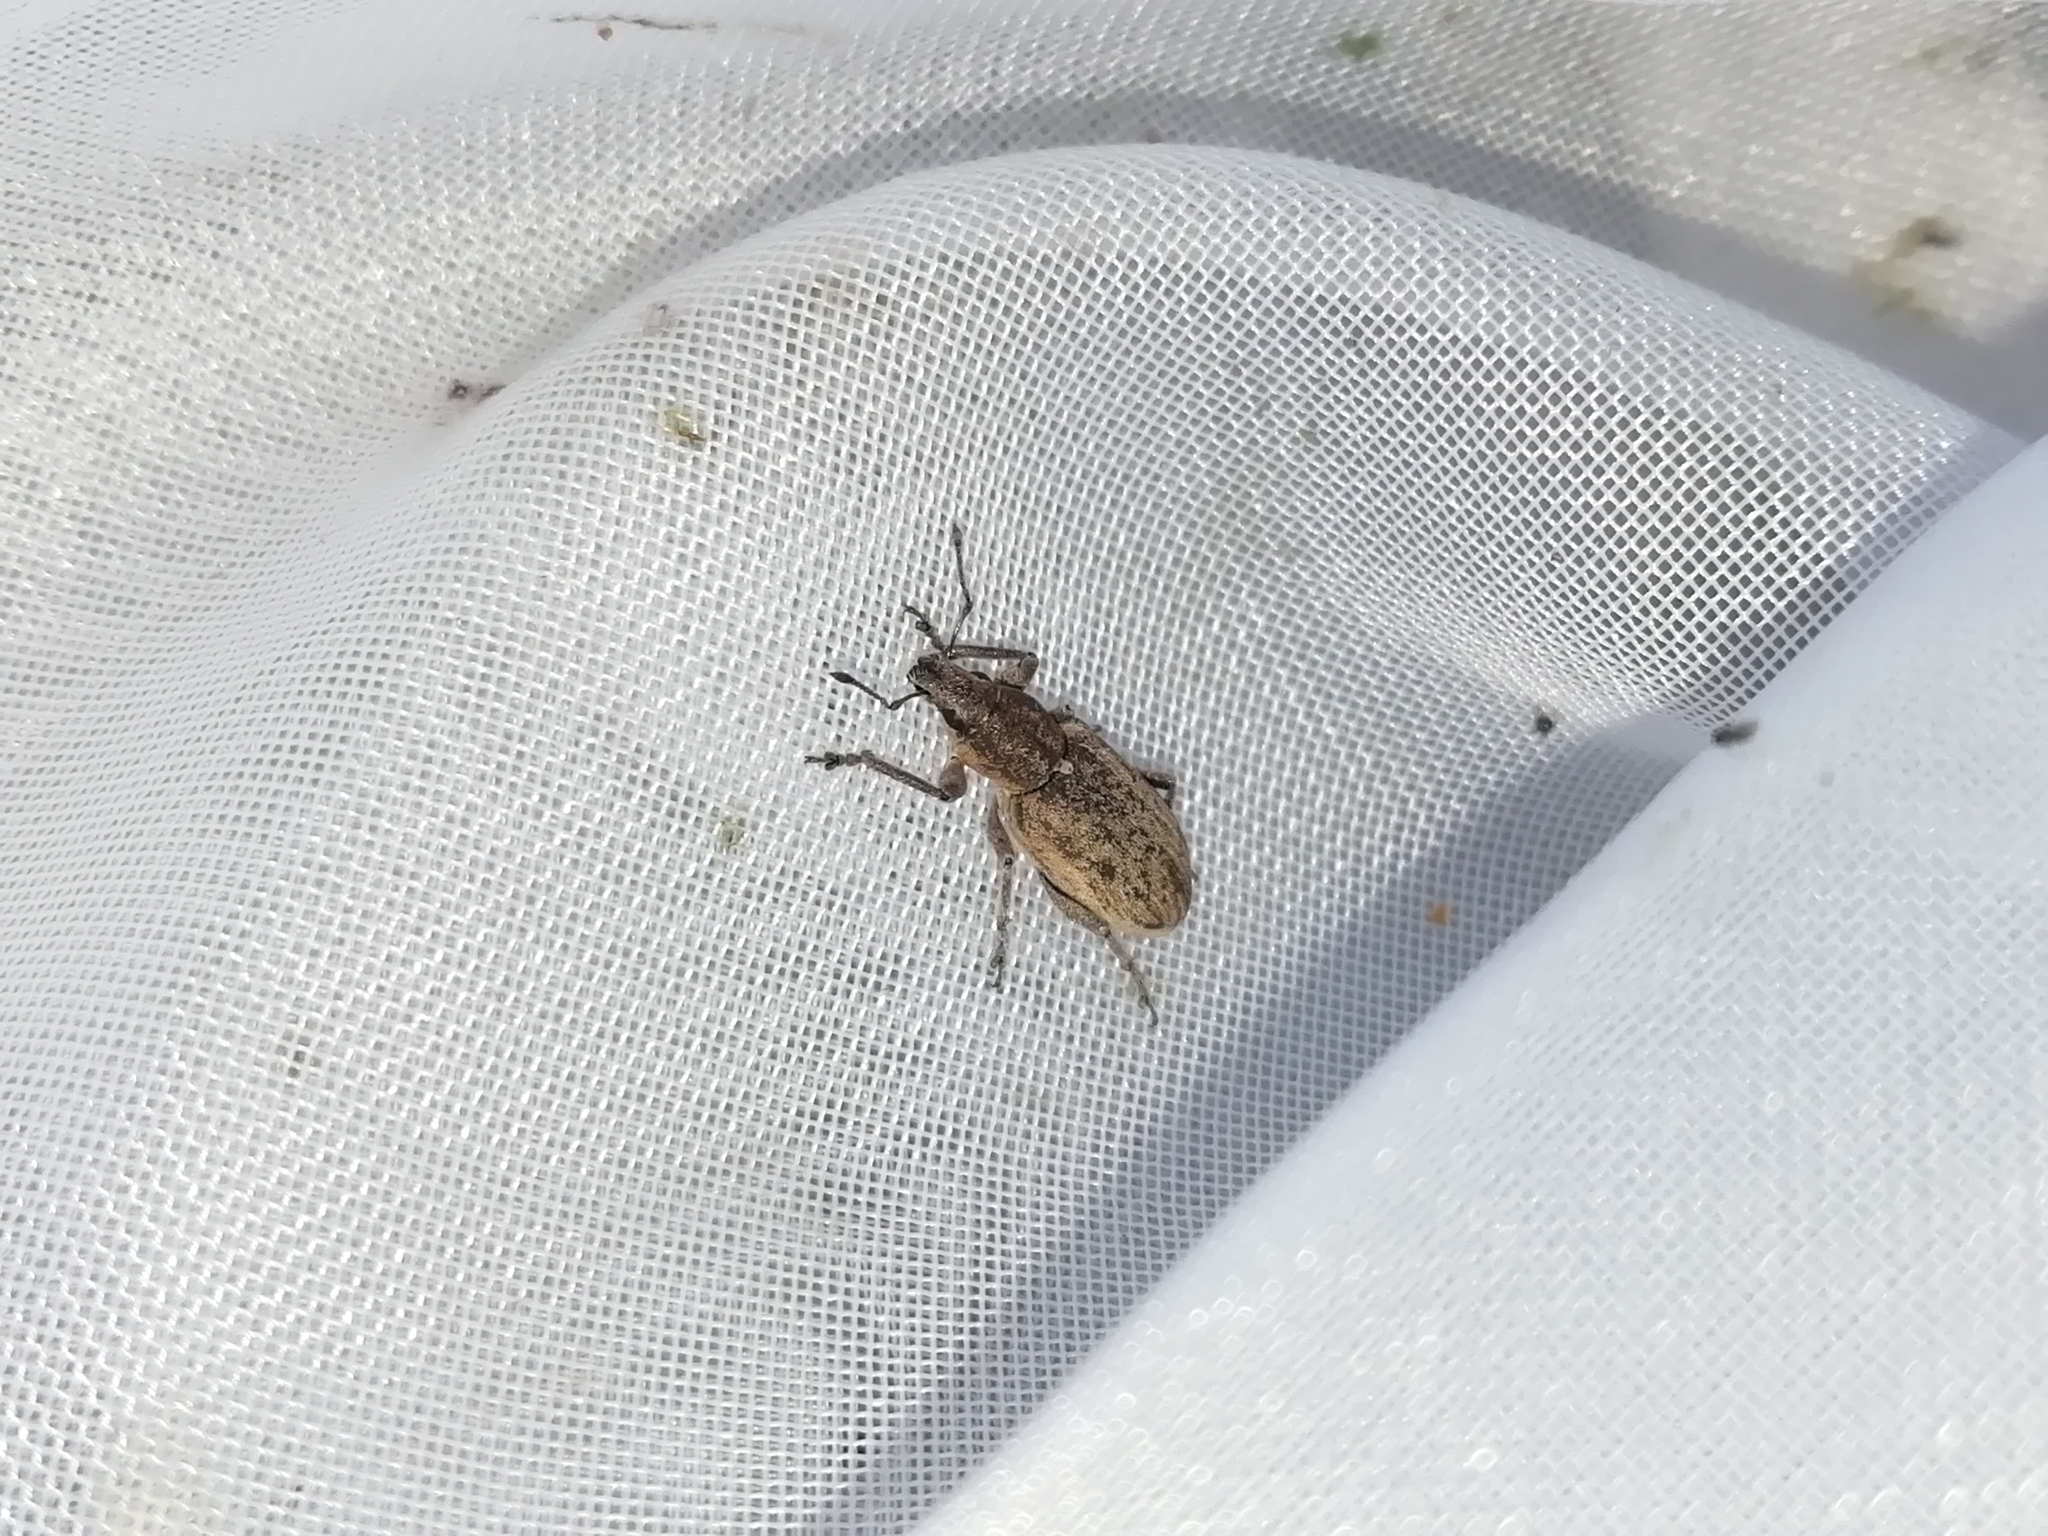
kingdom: Animalia
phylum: Arthropoda
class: Insecta
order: Coleoptera
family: Curculionidae
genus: Tanymecus
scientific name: Tanymecus palliatus
